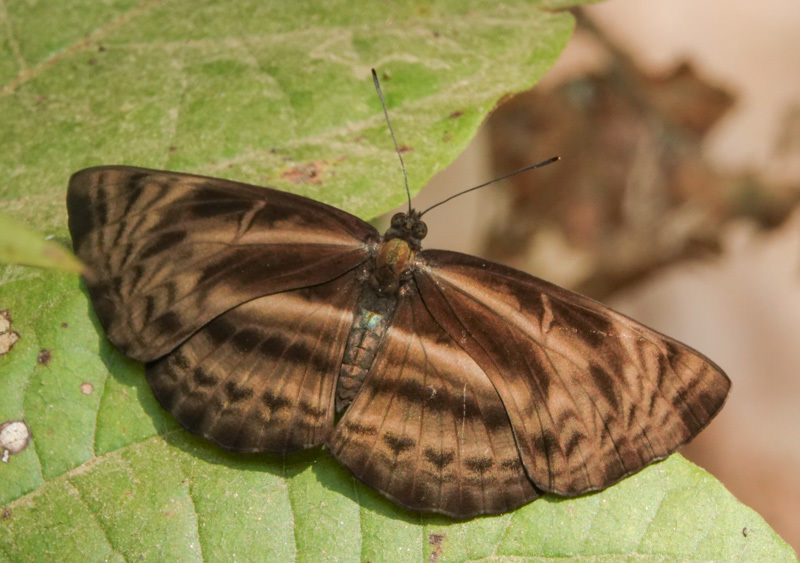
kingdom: Animalia
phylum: Arthropoda
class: Insecta
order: Lepidoptera
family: Nymphalidae
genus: Neptis
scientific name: Neptis harita
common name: Chocolate sailer
